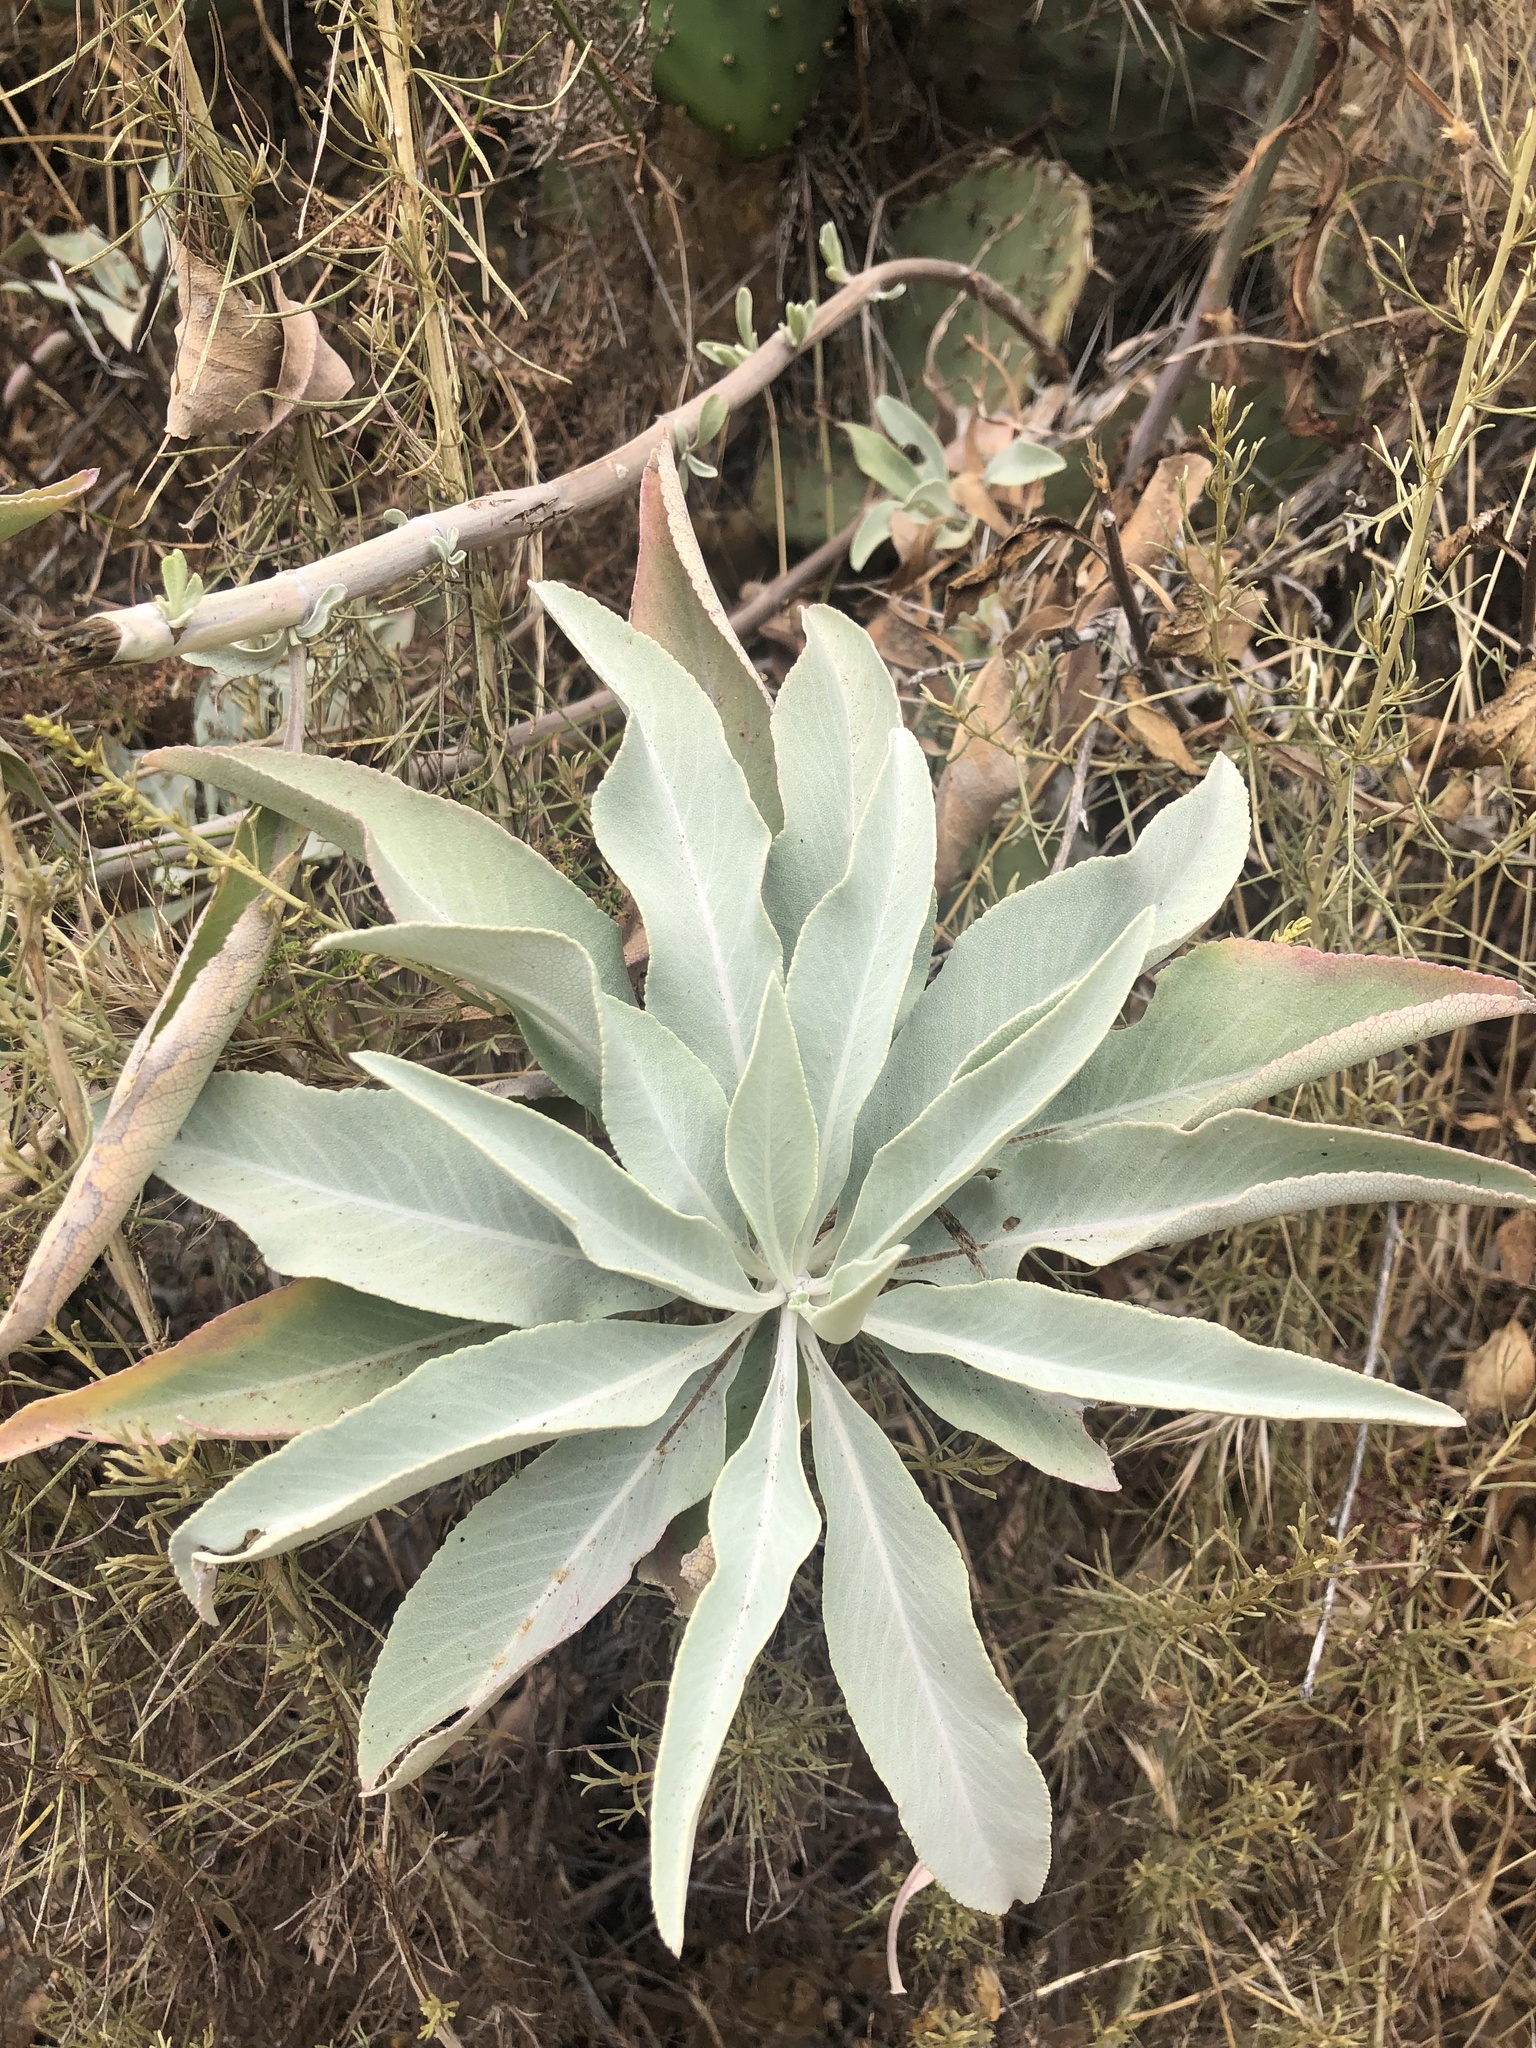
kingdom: Plantae
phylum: Tracheophyta
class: Magnoliopsida
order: Lamiales
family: Lamiaceae
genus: Salvia
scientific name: Salvia apiana
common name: White sage
